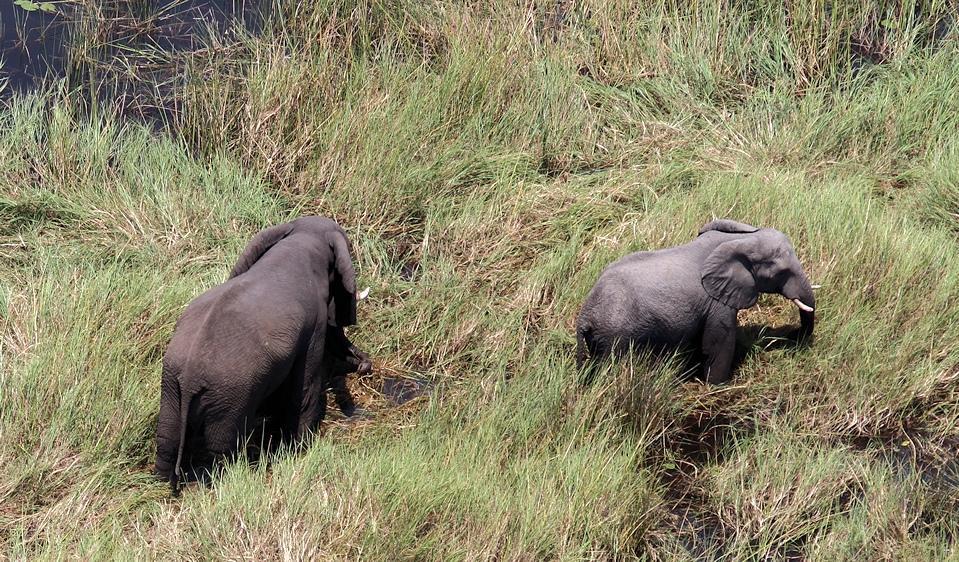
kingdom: Animalia
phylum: Chordata
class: Mammalia
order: Proboscidea
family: Elephantidae
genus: Loxodonta
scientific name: Loxodonta africana
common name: African elephant
